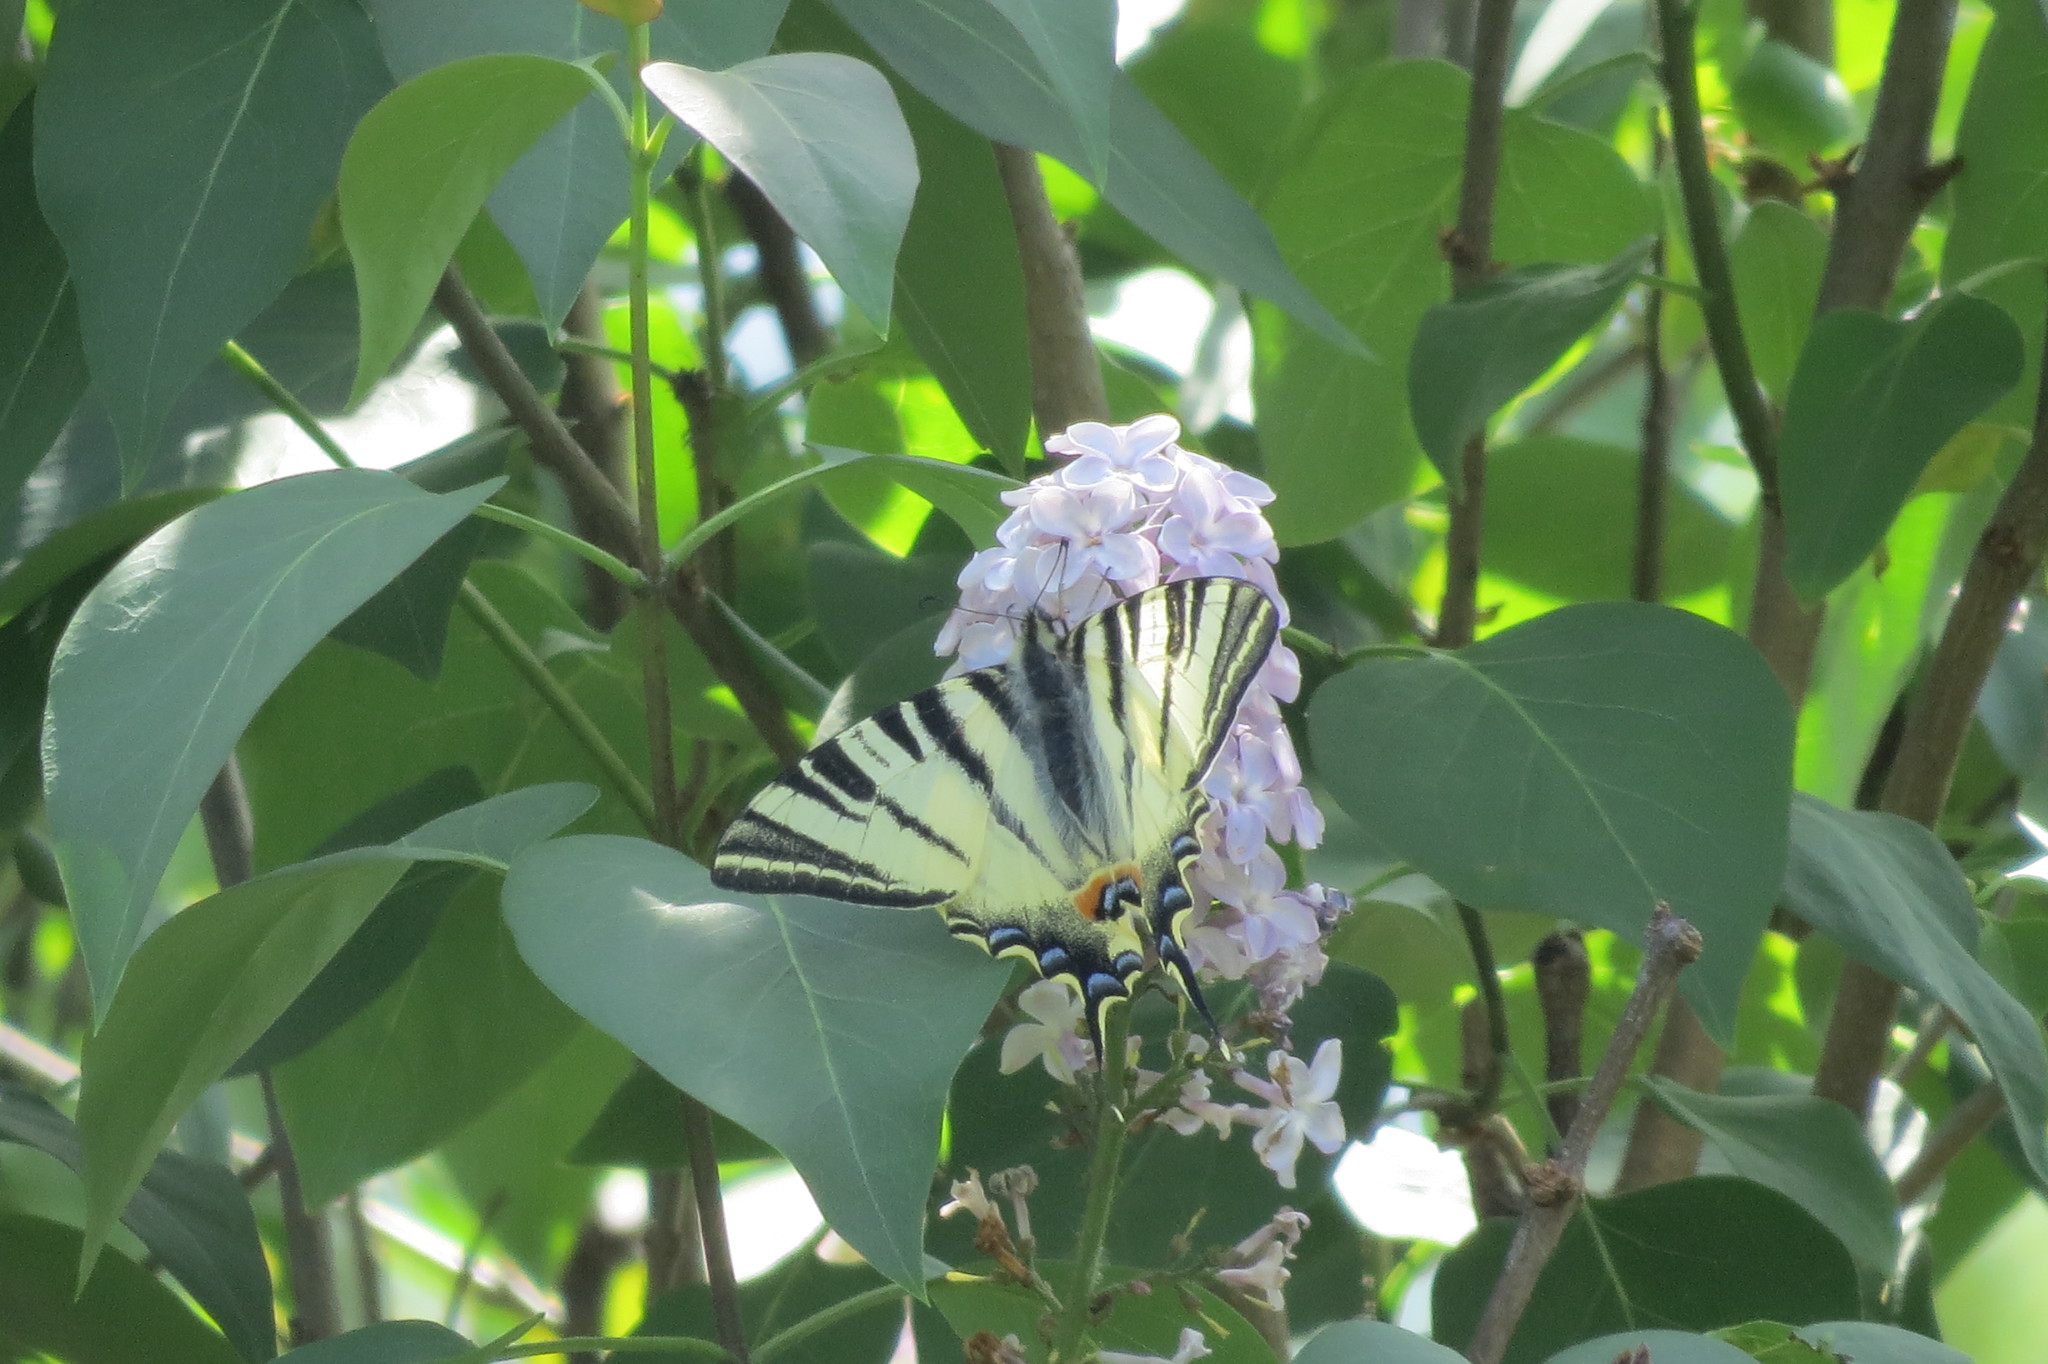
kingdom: Animalia
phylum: Arthropoda
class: Insecta
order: Lepidoptera
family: Papilionidae
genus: Iphiclides
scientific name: Iphiclides podalirius
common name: Scarce swallowtail
